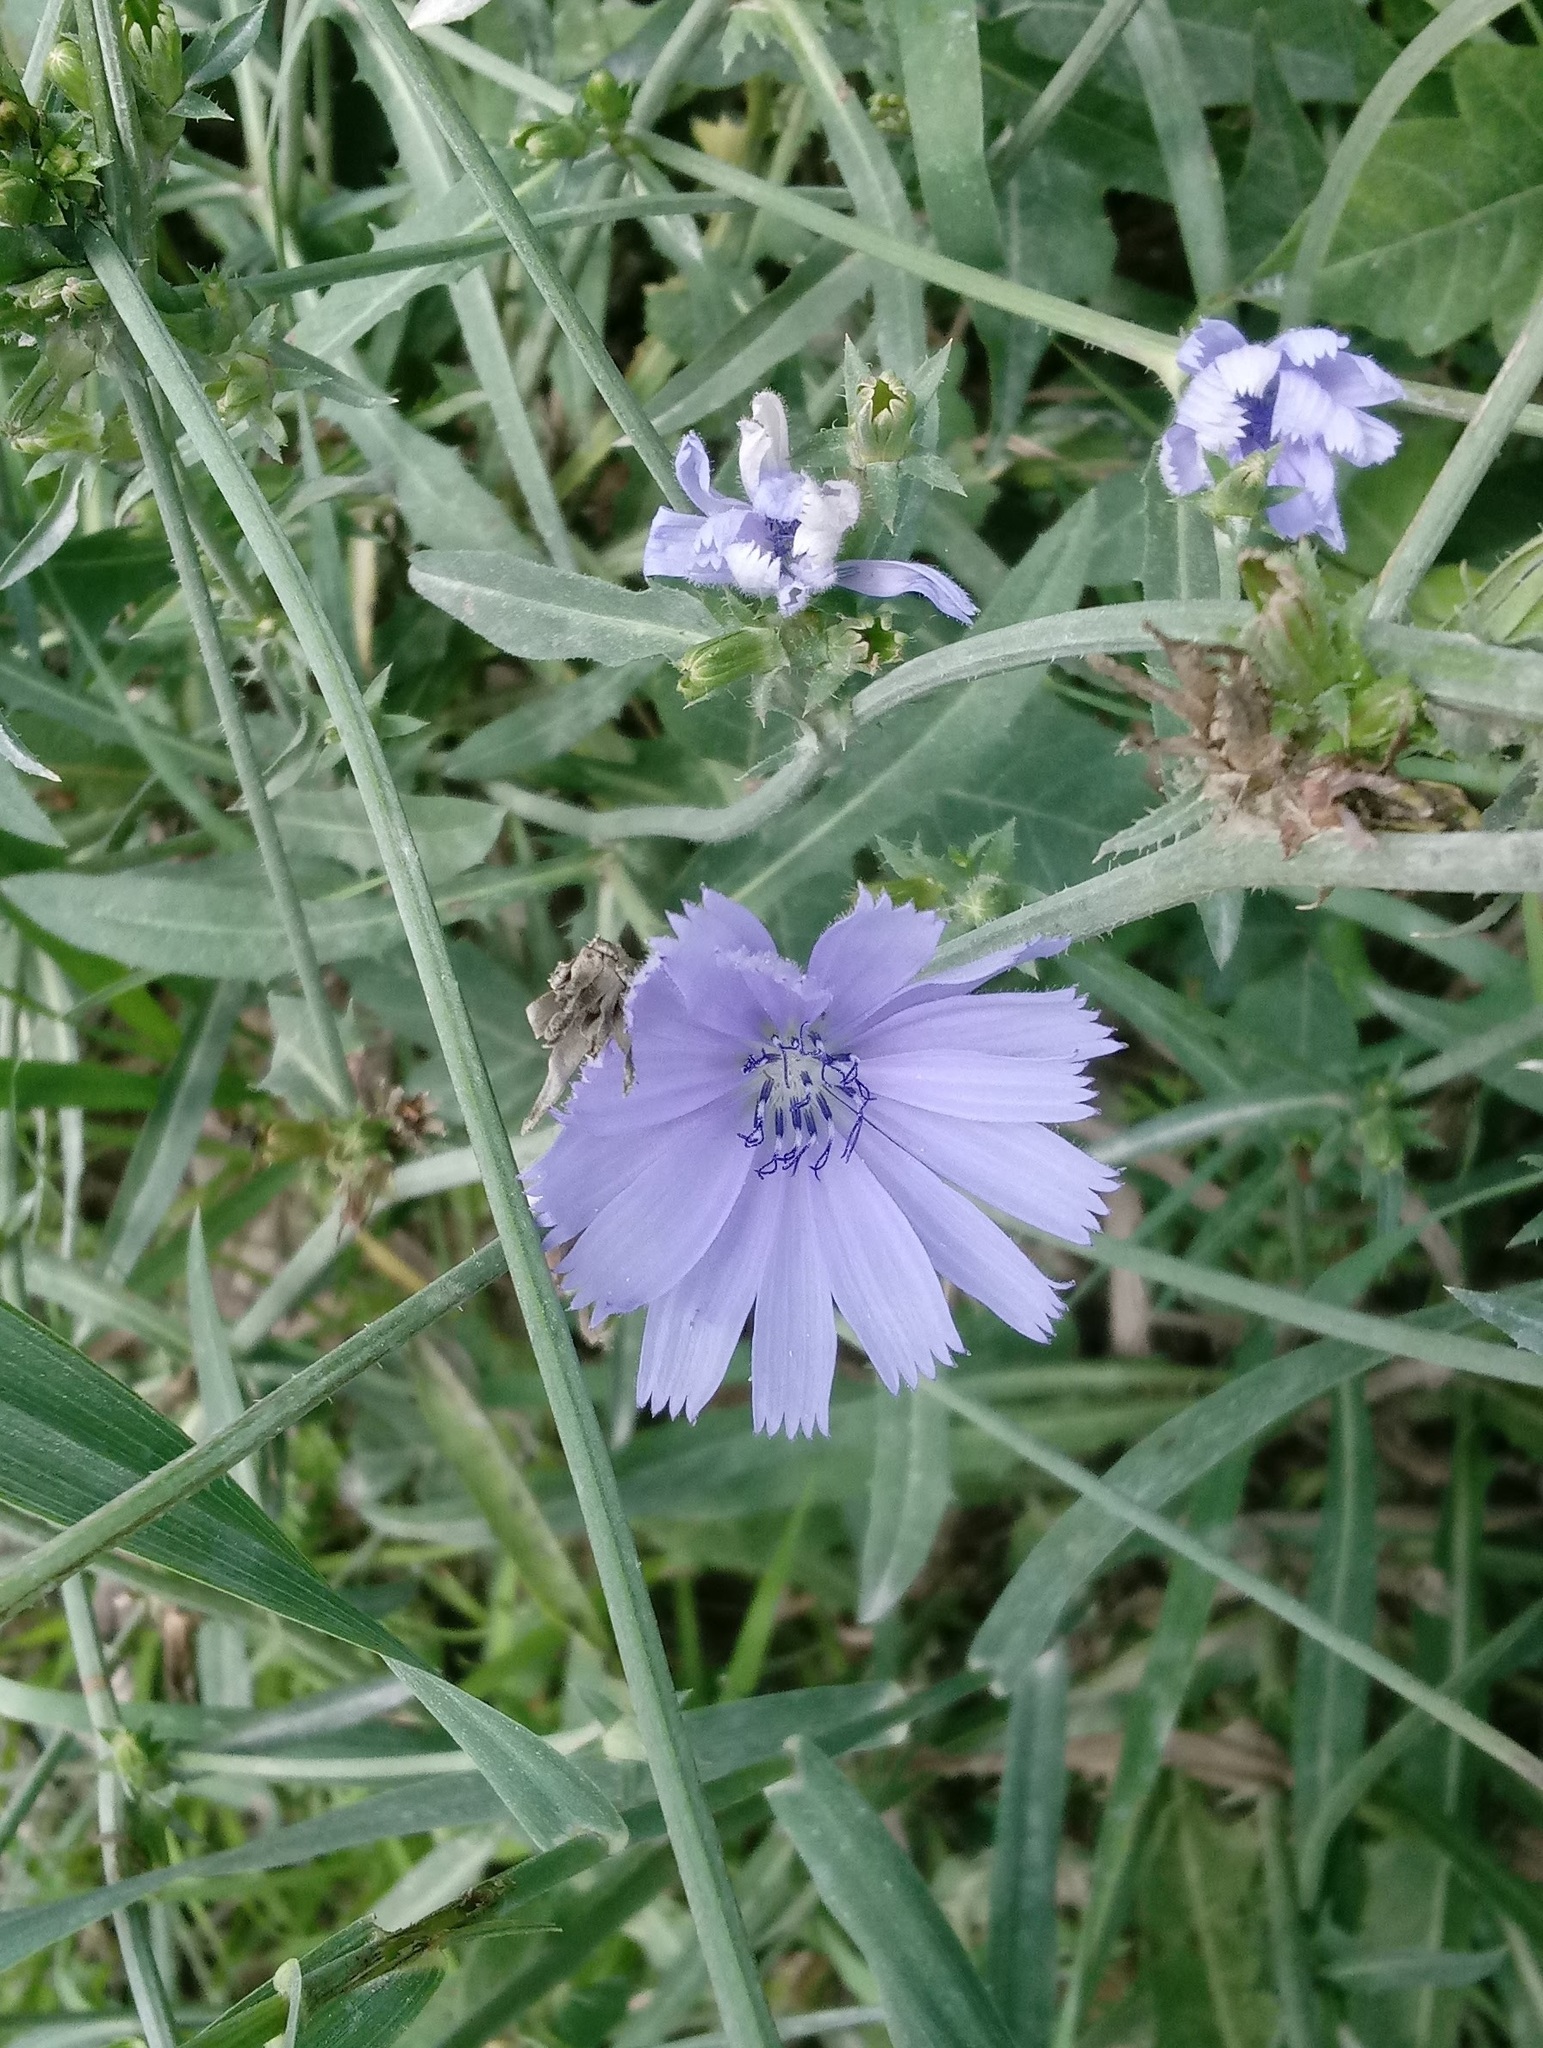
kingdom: Plantae
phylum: Tracheophyta
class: Magnoliopsida
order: Asterales
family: Asteraceae
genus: Cichorium
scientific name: Cichorium intybus
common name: Chicory
